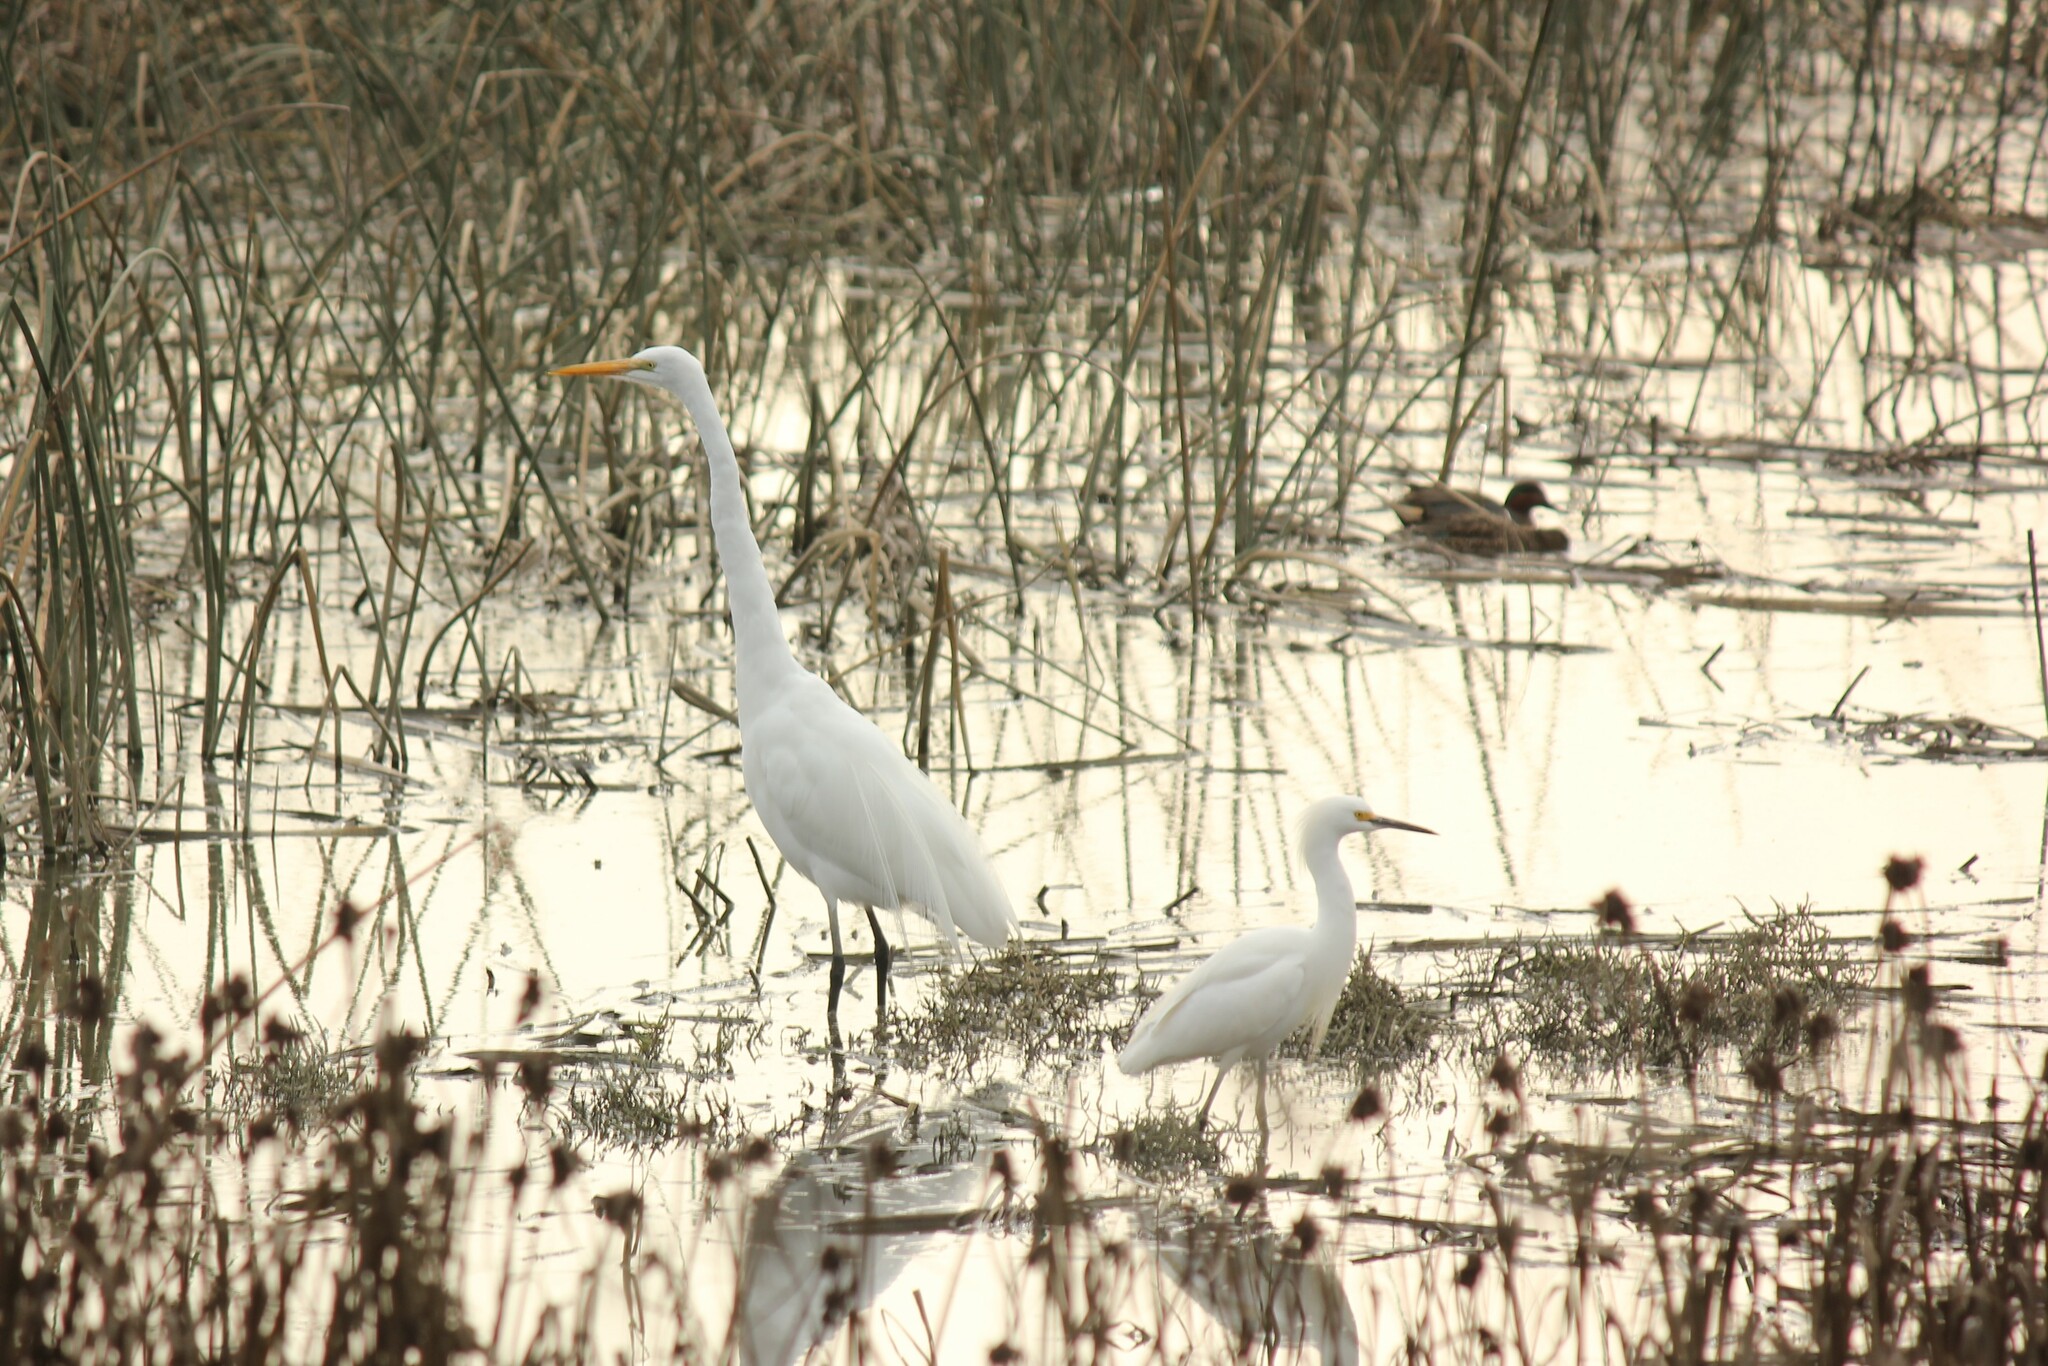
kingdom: Animalia
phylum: Chordata
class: Aves
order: Pelecaniformes
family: Ardeidae
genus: Ardea
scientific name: Ardea alba
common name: Great egret
